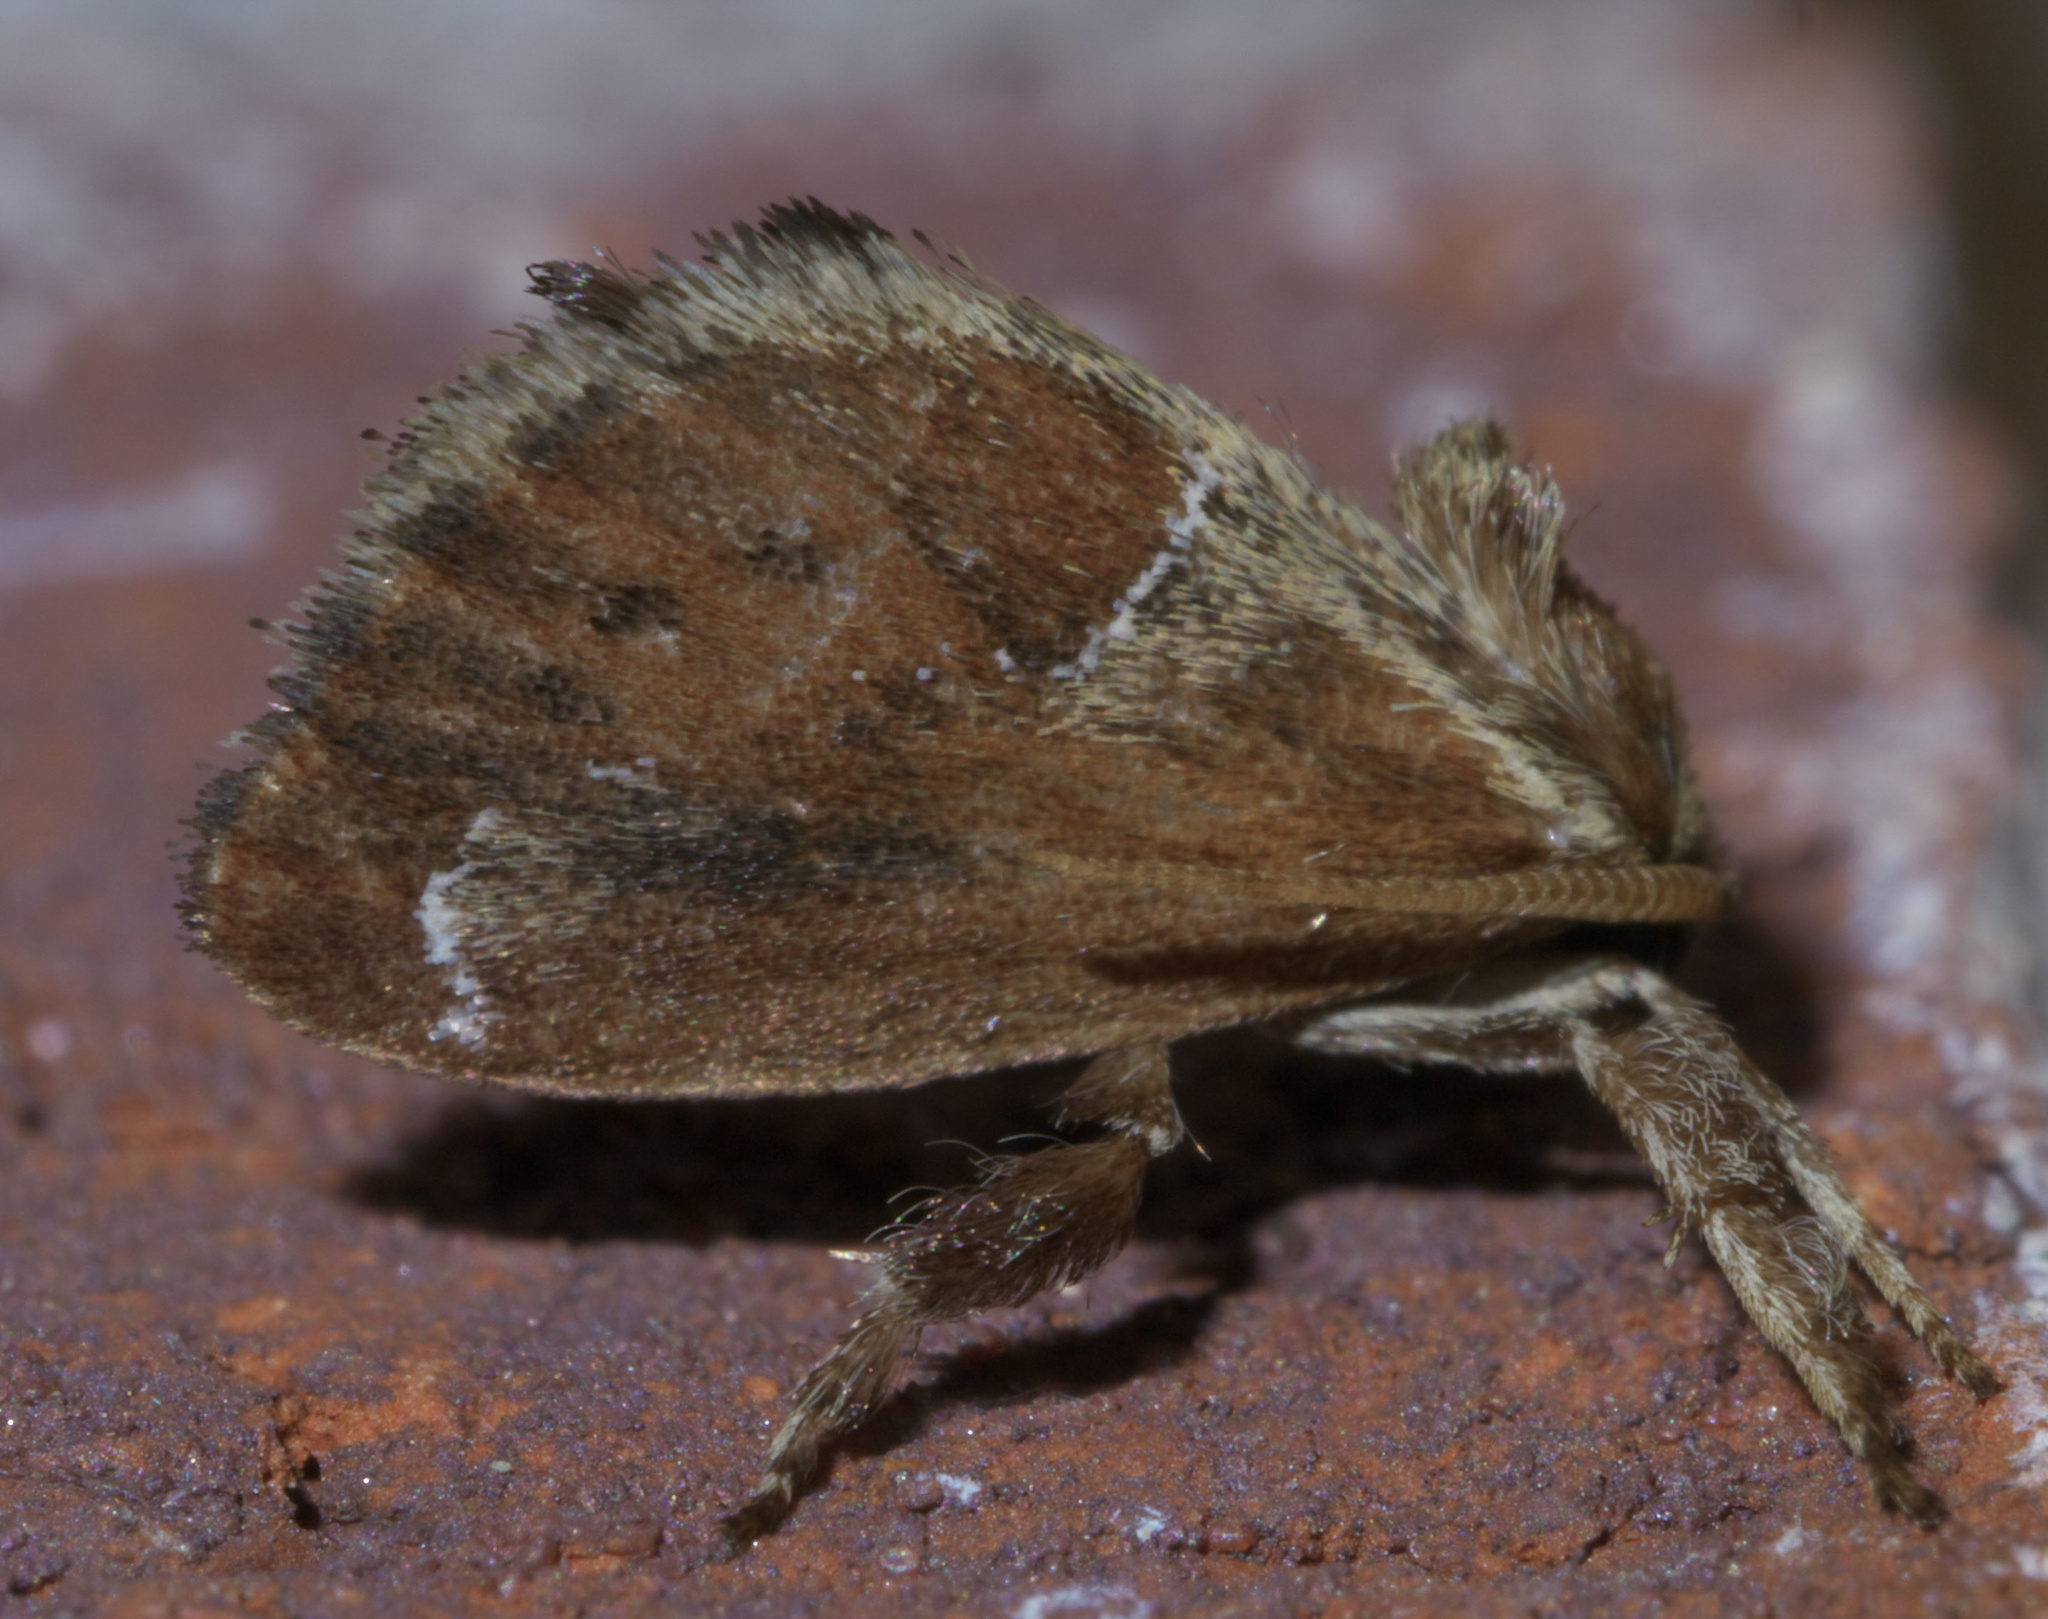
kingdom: Animalia
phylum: Arthropoda
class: Insecta
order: Lepidoptera
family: Limacodidae
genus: Adoneta
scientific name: Adoneta spinuloides
